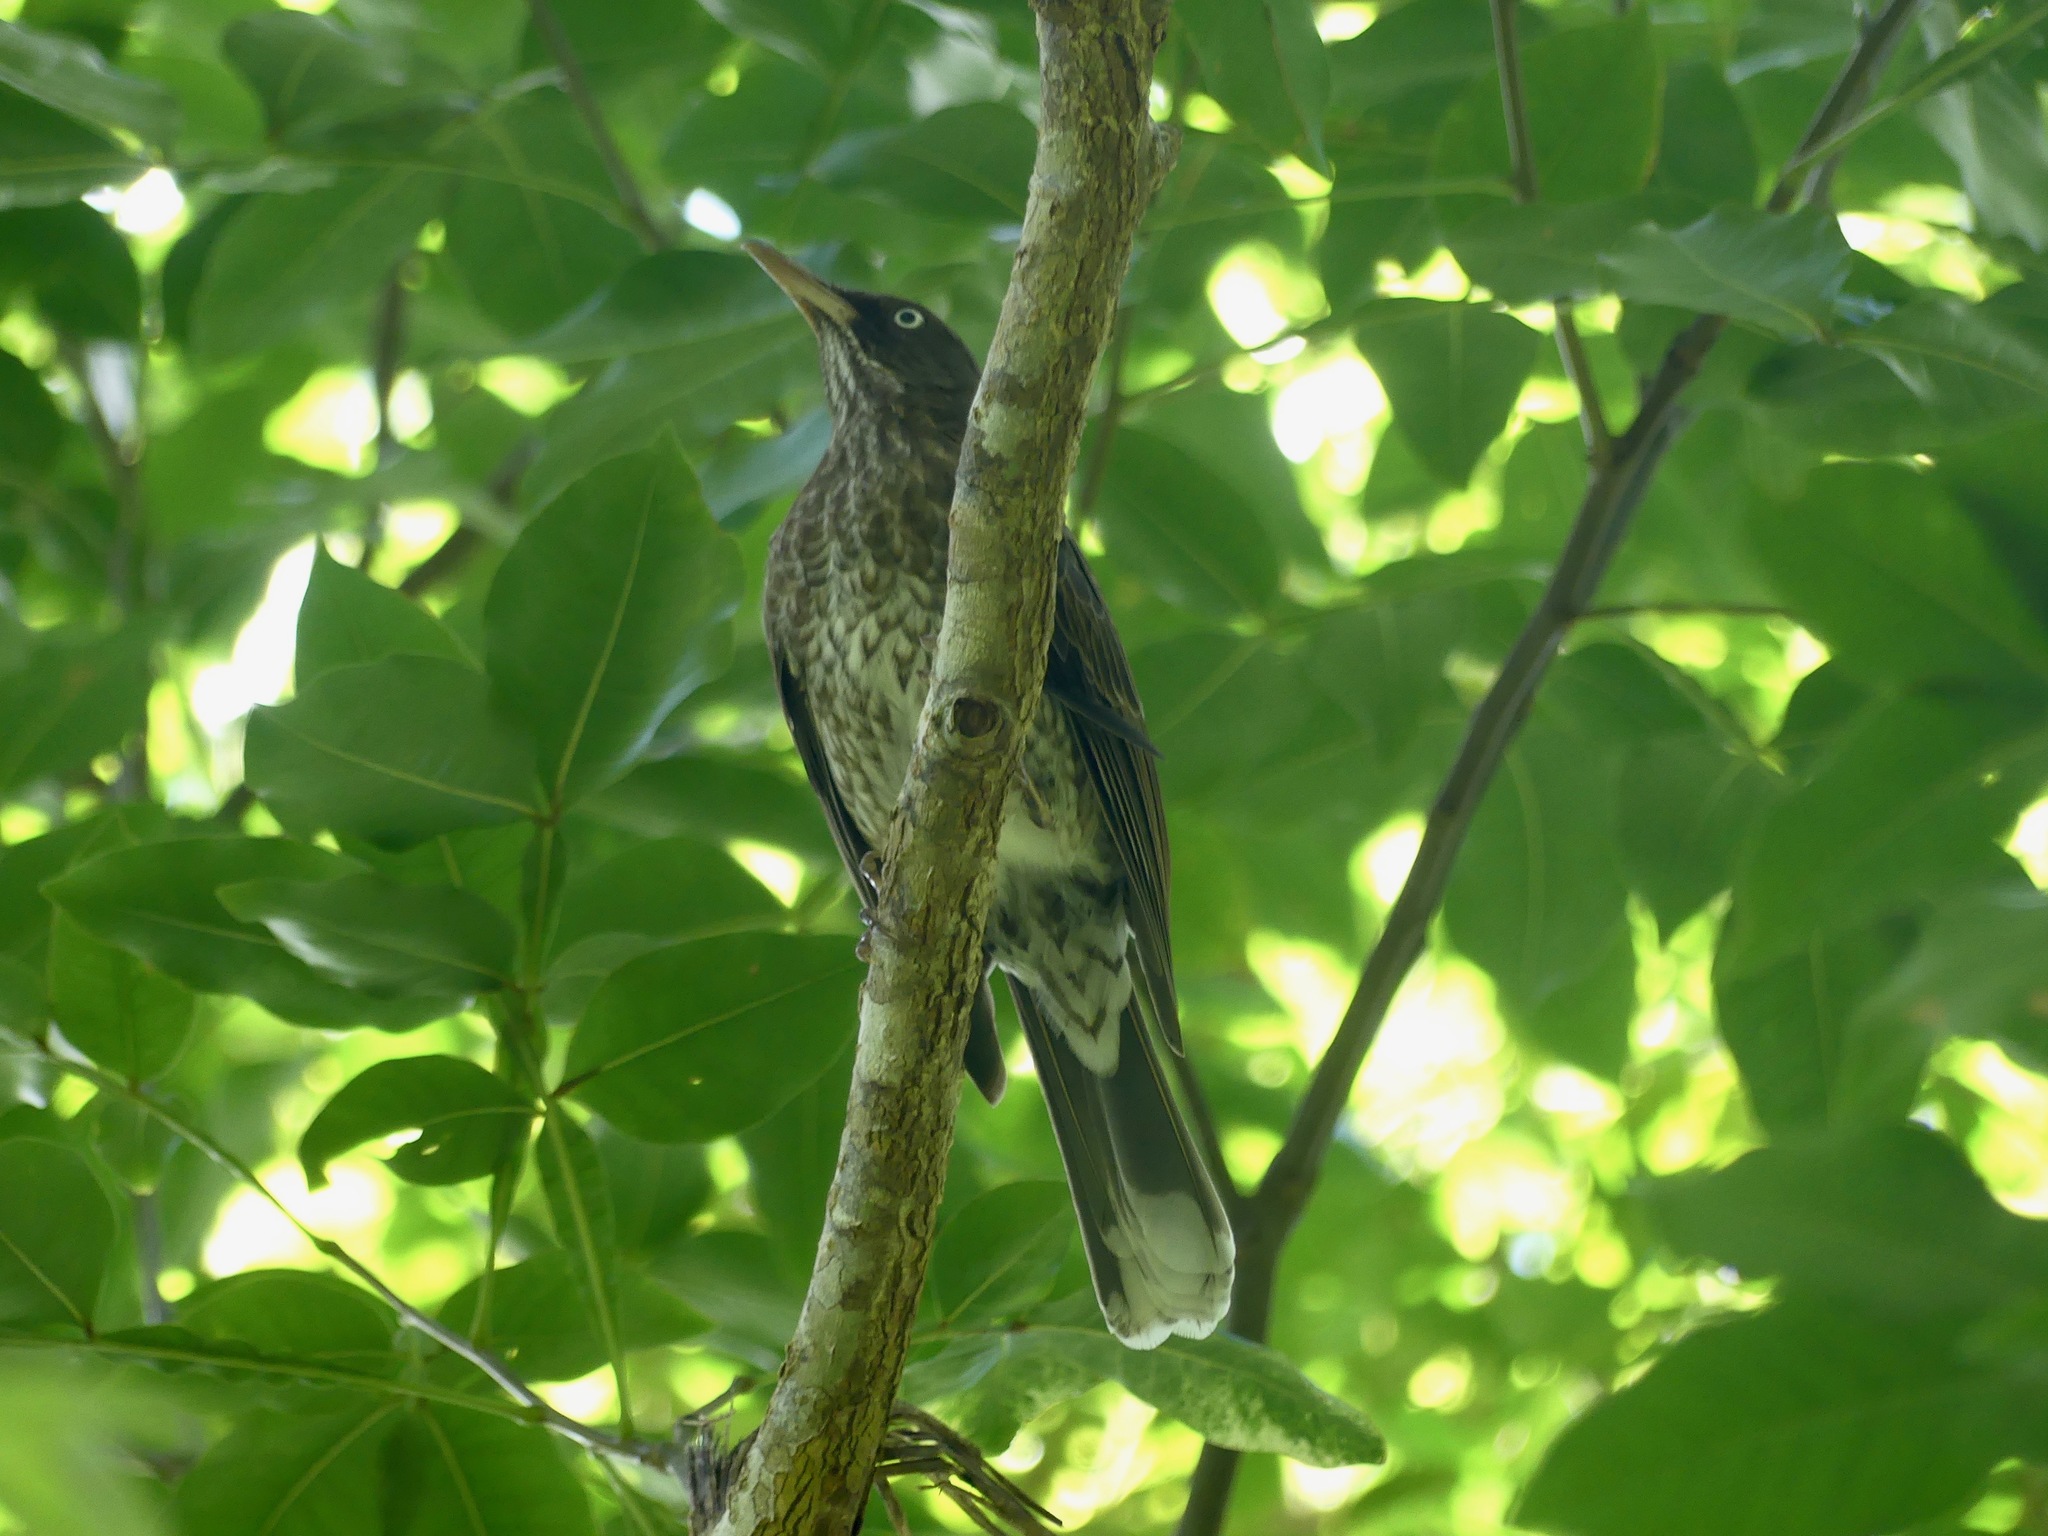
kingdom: Animalia
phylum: Chordata
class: Aves
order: Passeriformes
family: Mimidae
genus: Margarops
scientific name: Margarops fuscatus
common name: Pearly-eyed thrasher
